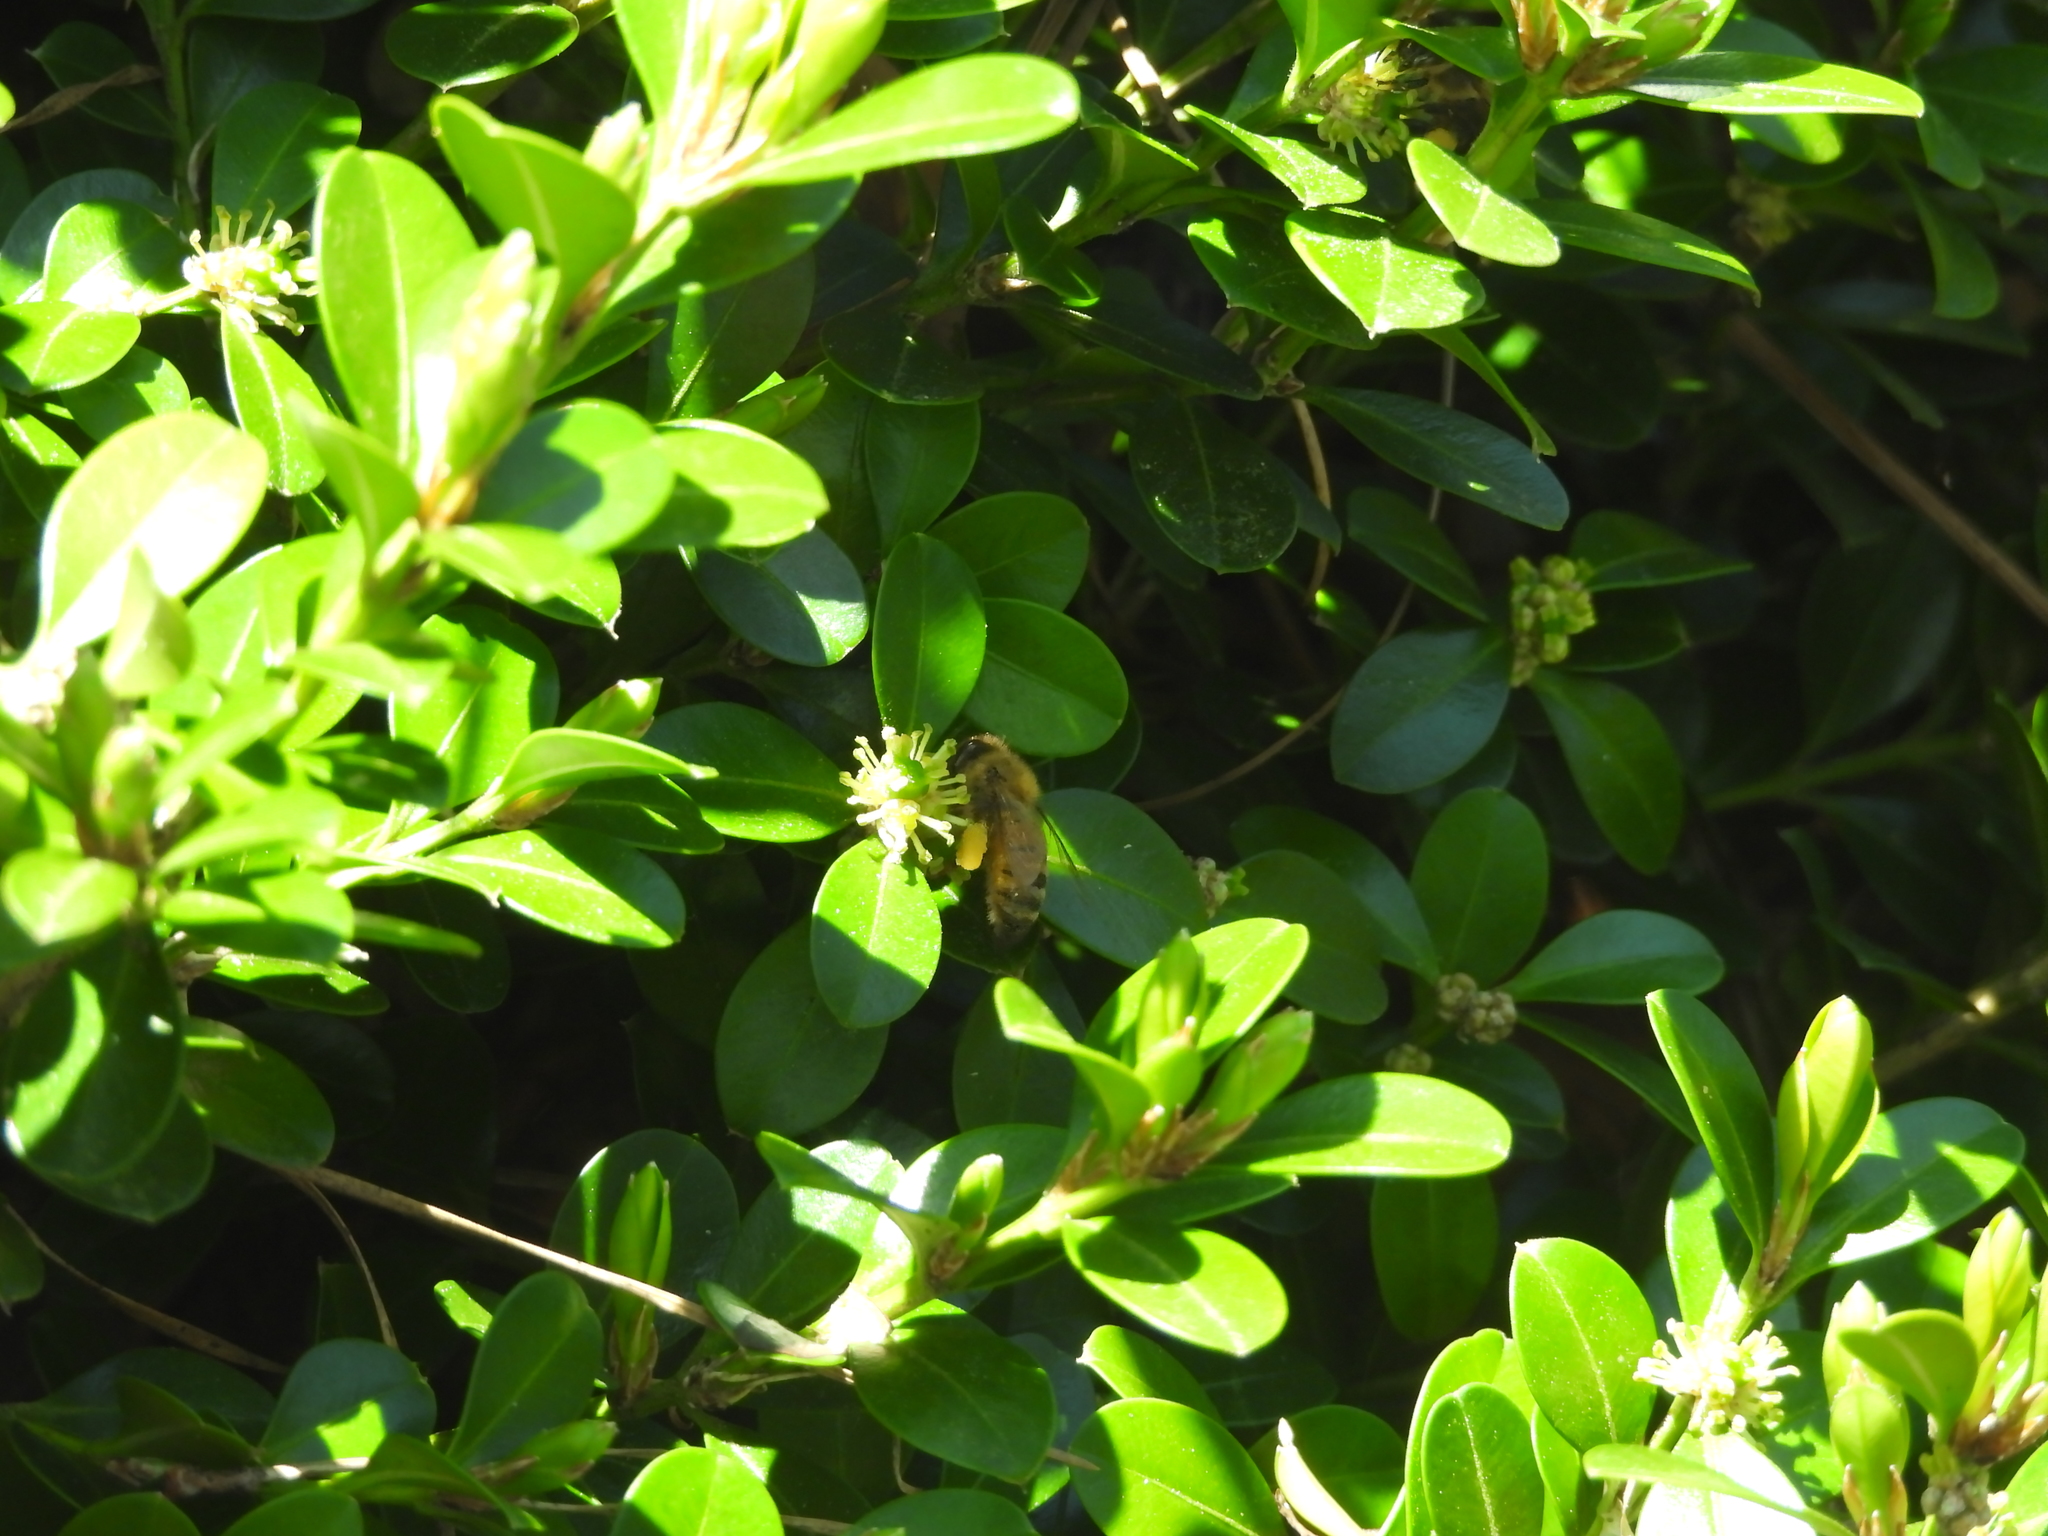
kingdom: Animalia
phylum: Arthropoda
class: Insecta
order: Hymenoptera
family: Apidae
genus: Apis
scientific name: Apis mellifera
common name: Honey bee
